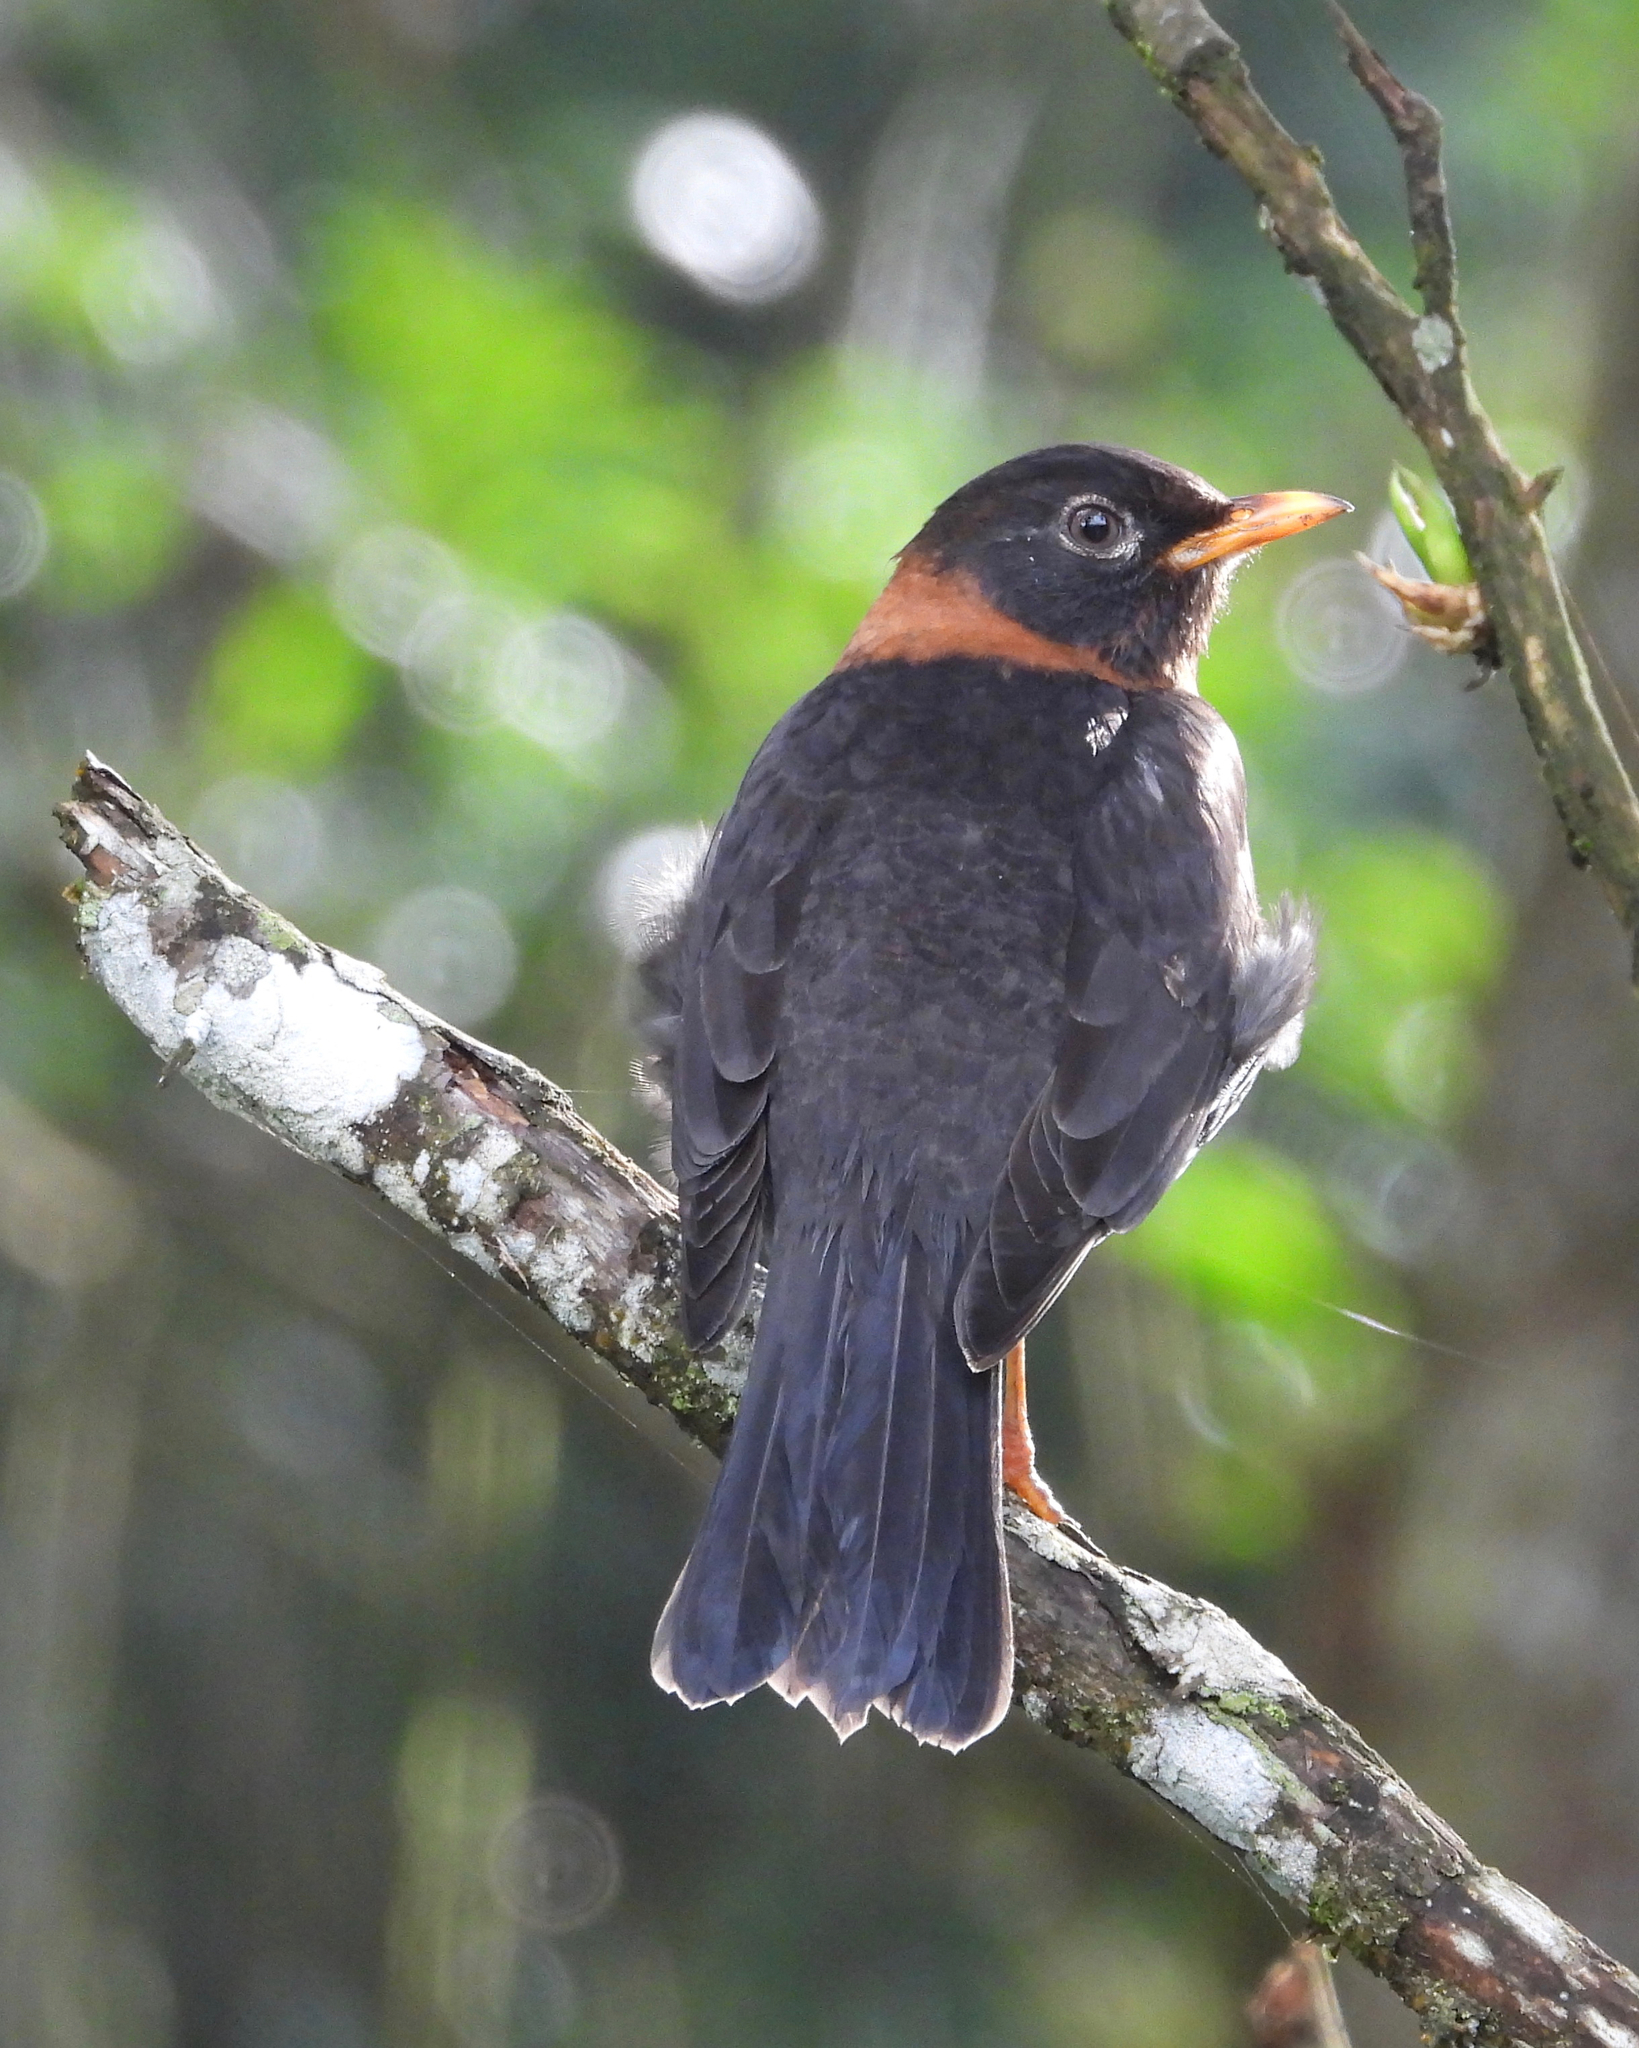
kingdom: Animalia
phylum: Chordata
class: Aves
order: Passeriformes
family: Turdidae
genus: Turdus
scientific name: Turdus rufitorques
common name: Rufous-collared thrush
